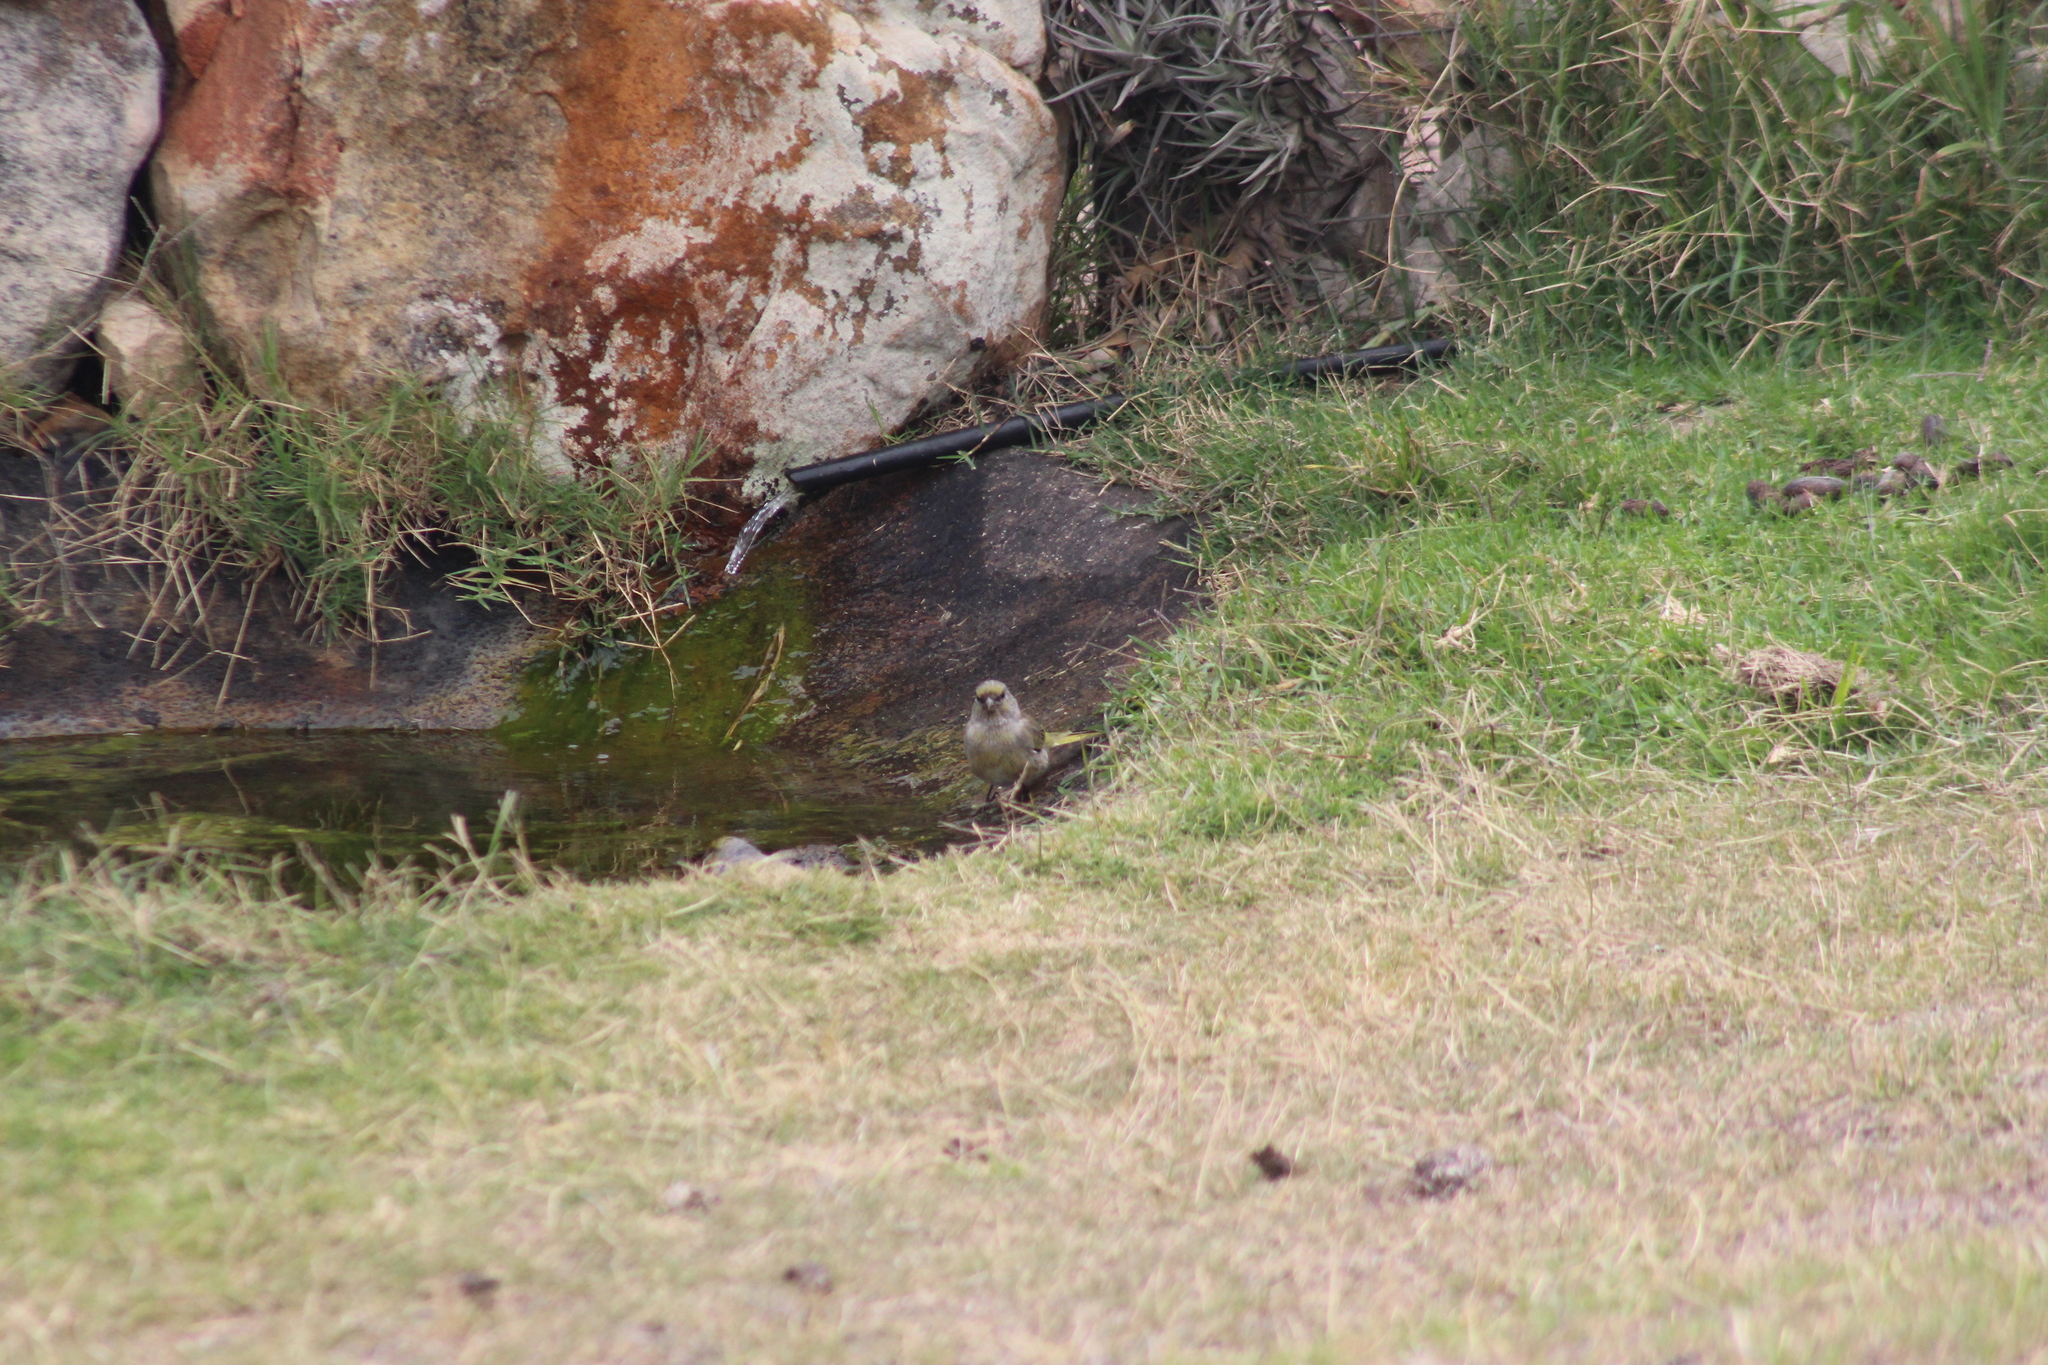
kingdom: Animalia
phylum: Chordata
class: Aves
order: Passeriformes
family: Fringillidae
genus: Serinus
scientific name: Serinus canicollis
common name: Cape canary
